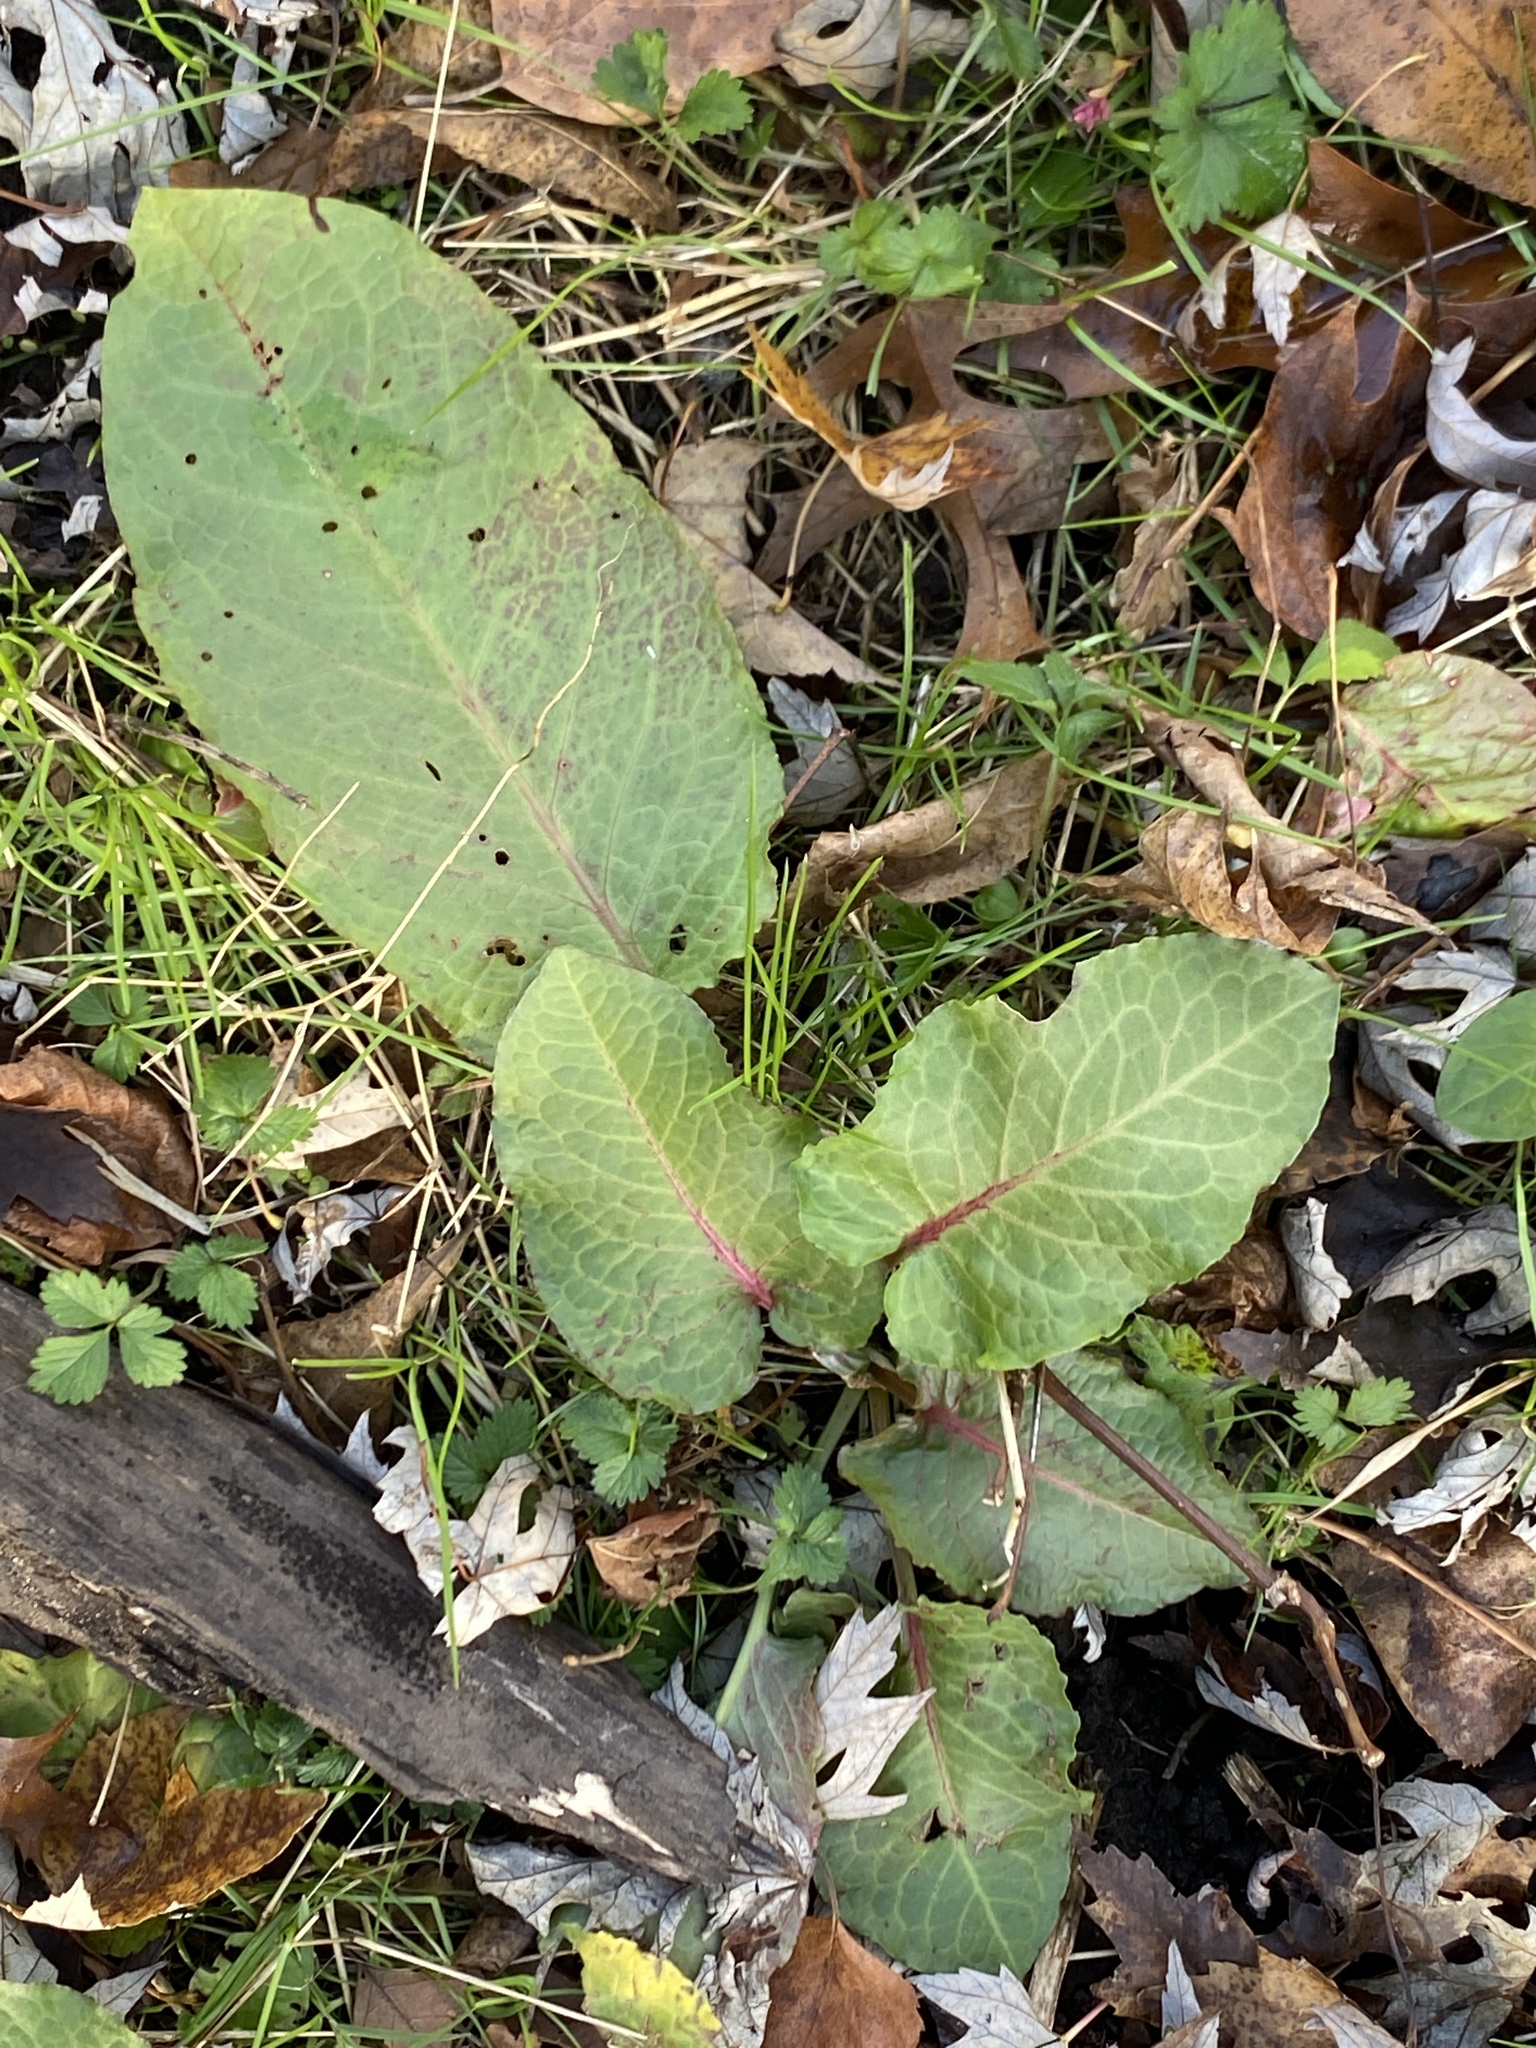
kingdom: Plantae
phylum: Tracheophyta
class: Magnoliopsida
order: Caryophyllales
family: Polygonaceae
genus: Rumex
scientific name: Rumex obtusifolius
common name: Bitter dock
